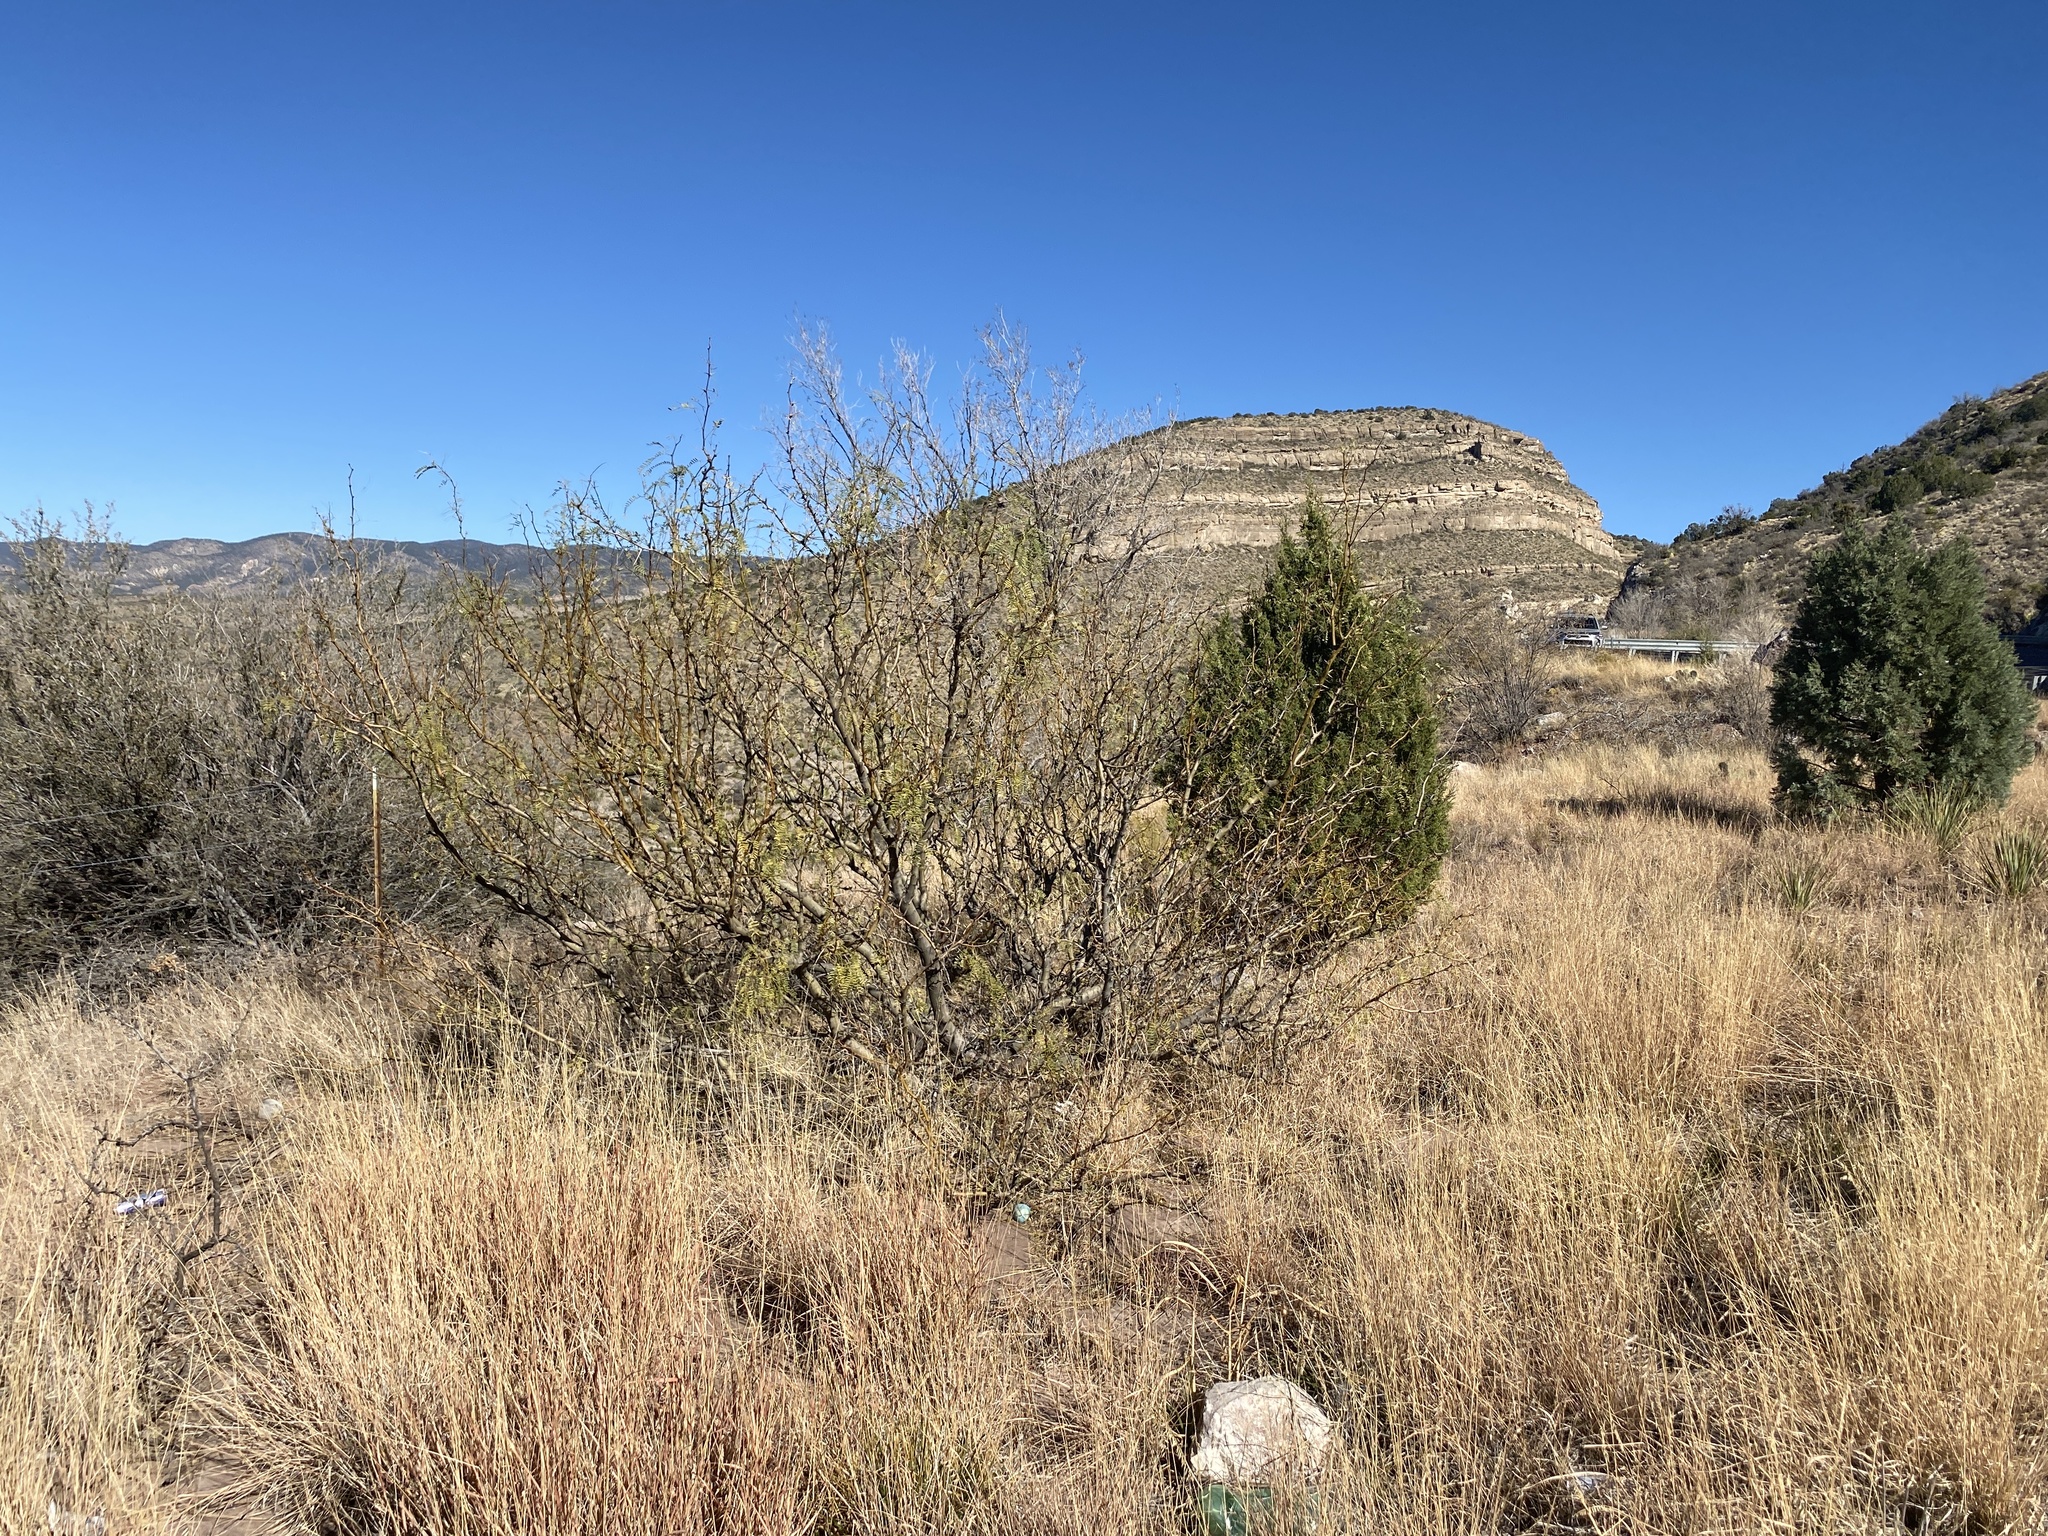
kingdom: Plantae
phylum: Tracheophyta
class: Magnoliopsida
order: Fabales
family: Fabaceae
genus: Prosopis
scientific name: Prosopis glandulosa
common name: Honey mesquite
